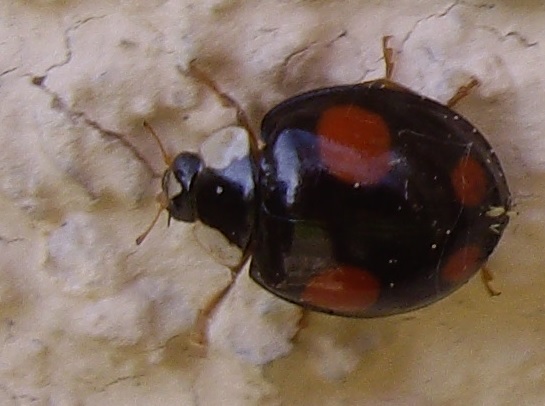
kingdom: Animalia
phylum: Arthropoda
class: Insecta
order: Coleoptera
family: Coccinellidae
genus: Harmonia
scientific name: Harmonia axyridis
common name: Harlequin ladybird
